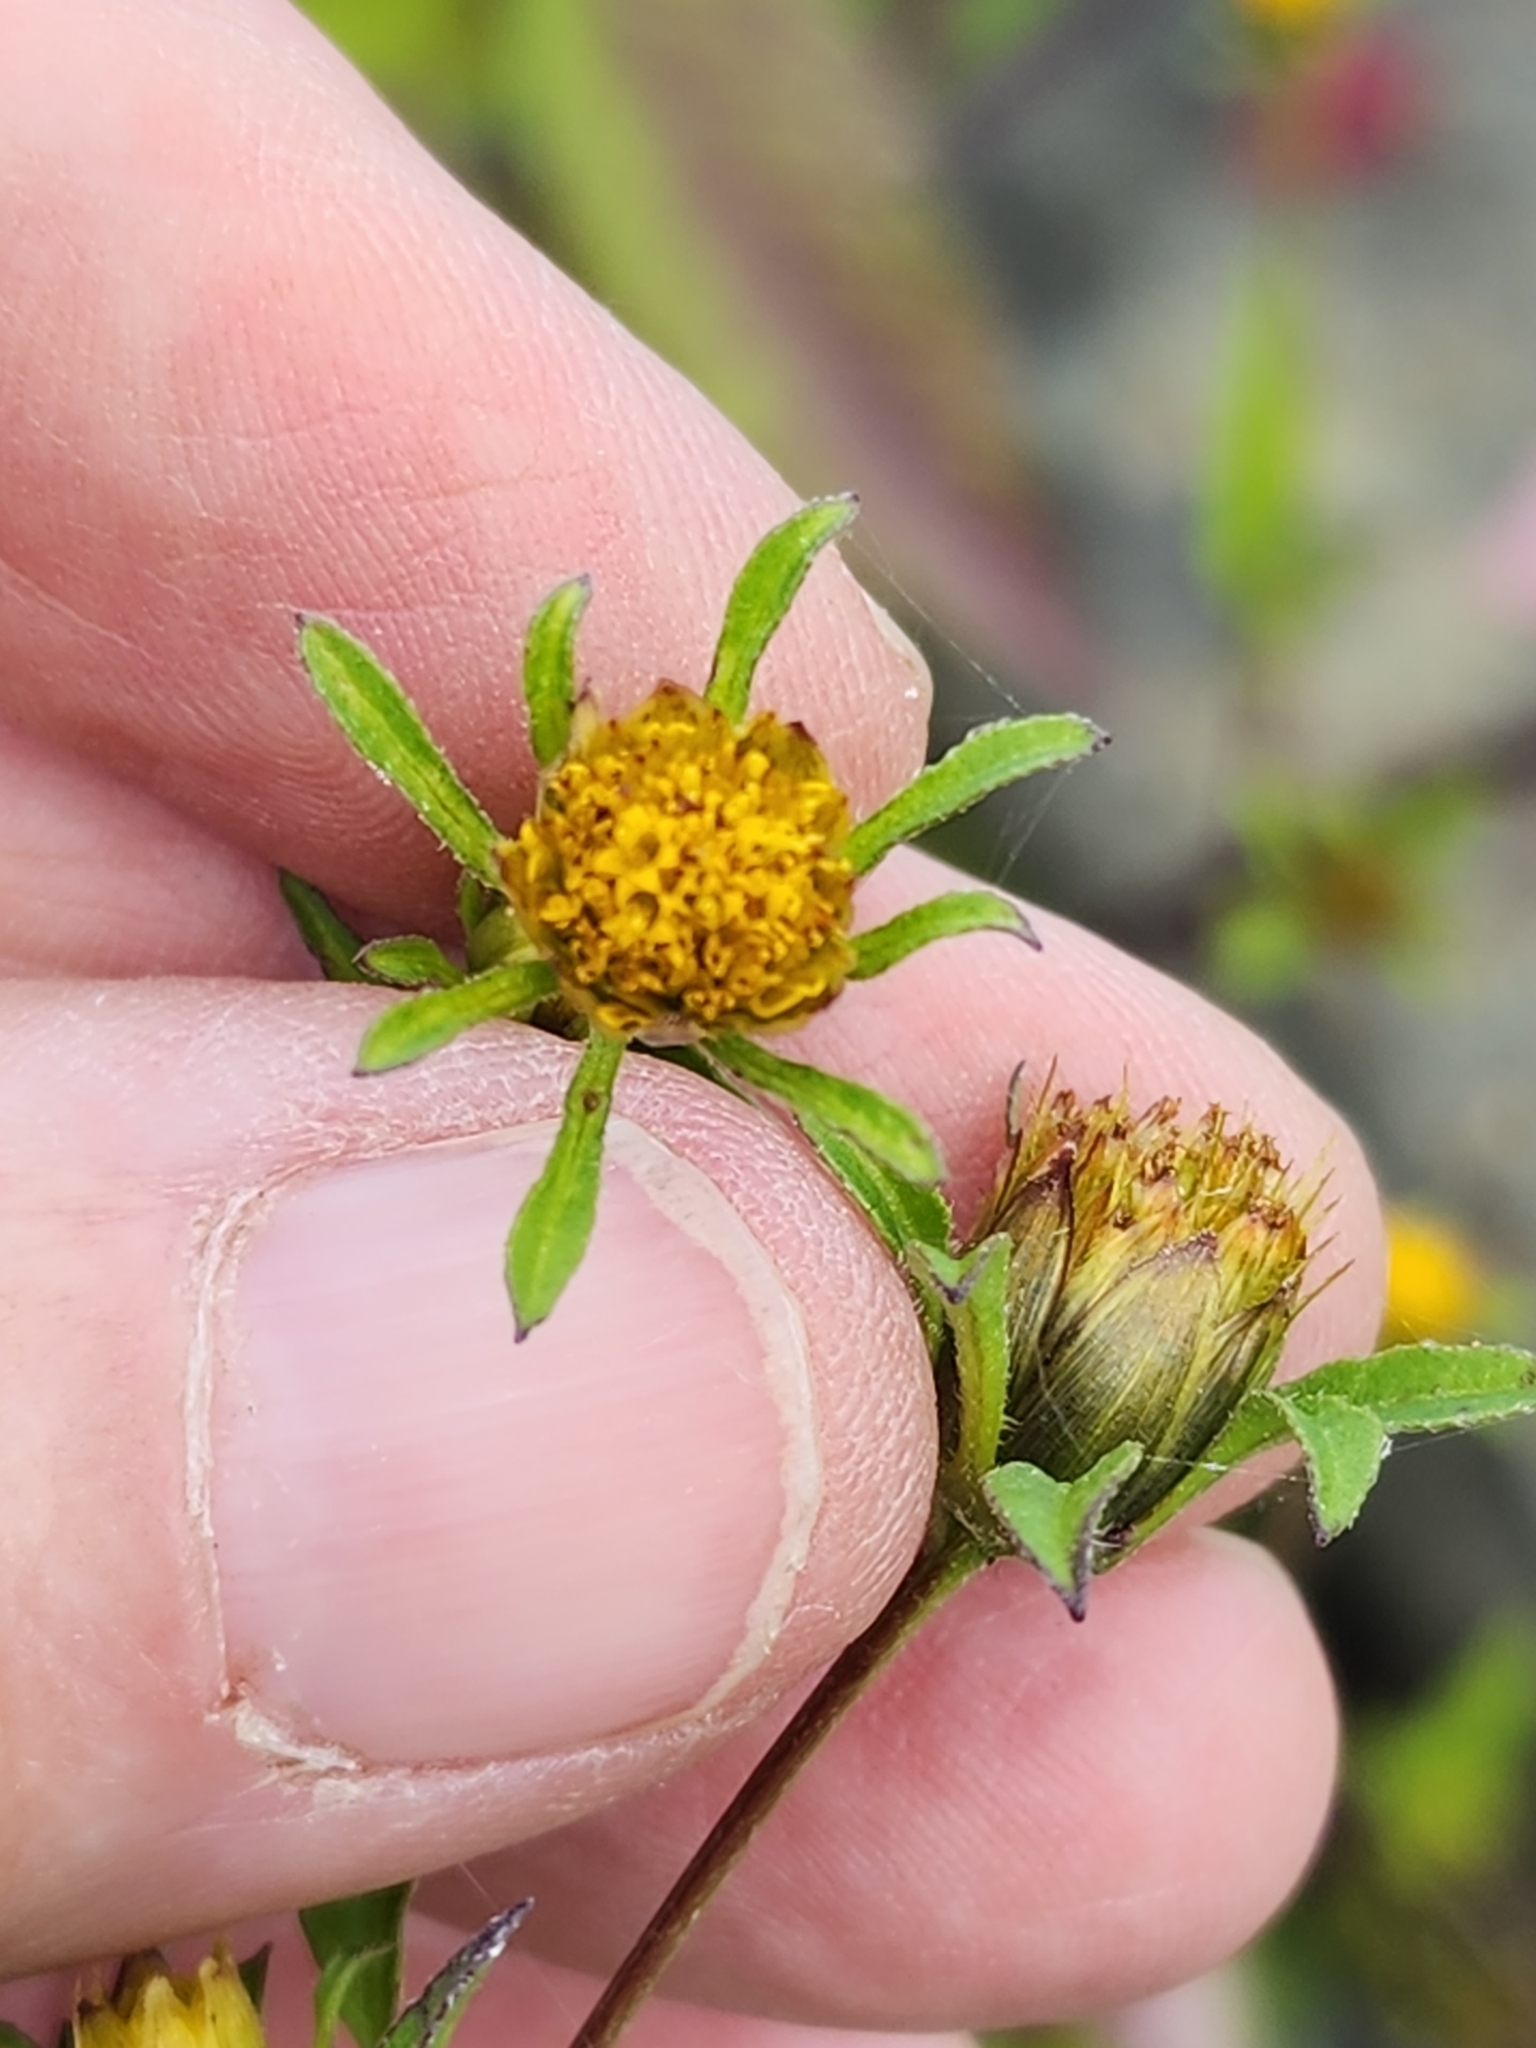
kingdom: Plantae
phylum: Tracheophyta
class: Magnoliopsida
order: Asterales
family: Asteraceae
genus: Bidens
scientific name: Bidens frondosa
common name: Beggarticks
